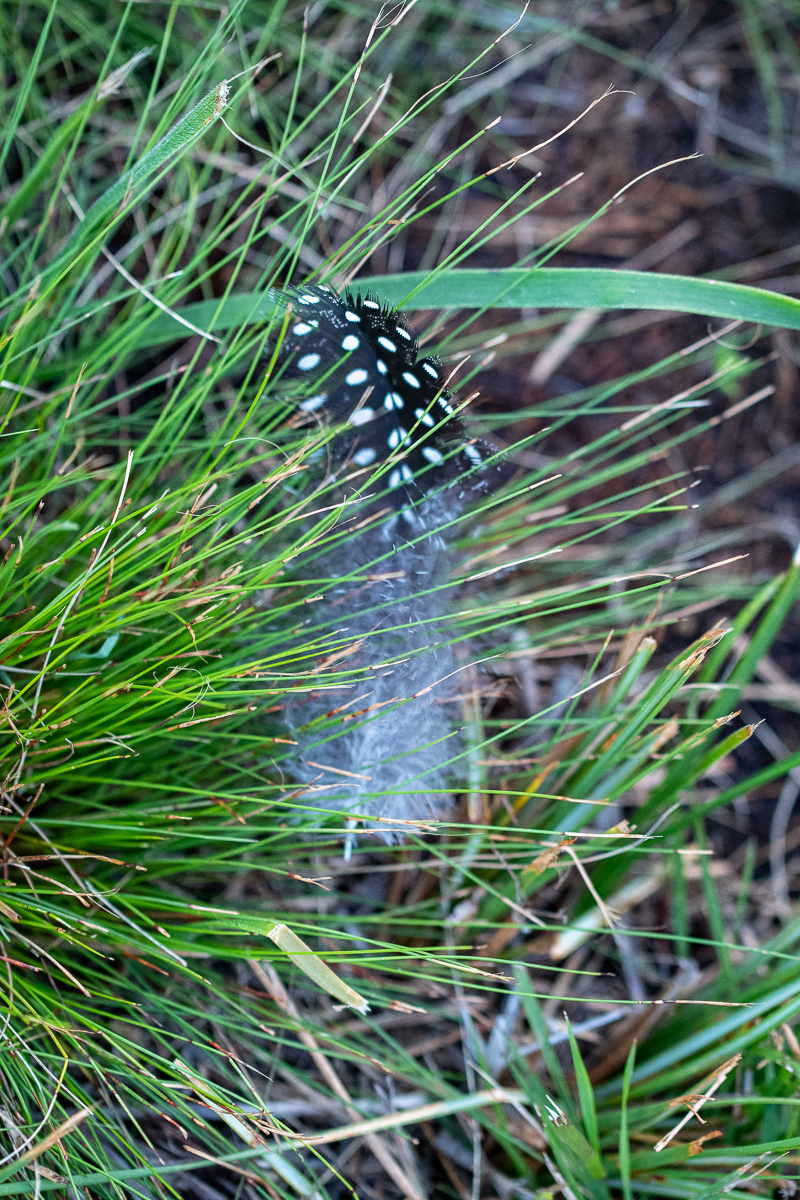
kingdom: Animalia
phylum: Chordata
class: Aves
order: Galliformes
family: Numididae
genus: Numida
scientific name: Numida meleagris
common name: Helmeted guineafowl
